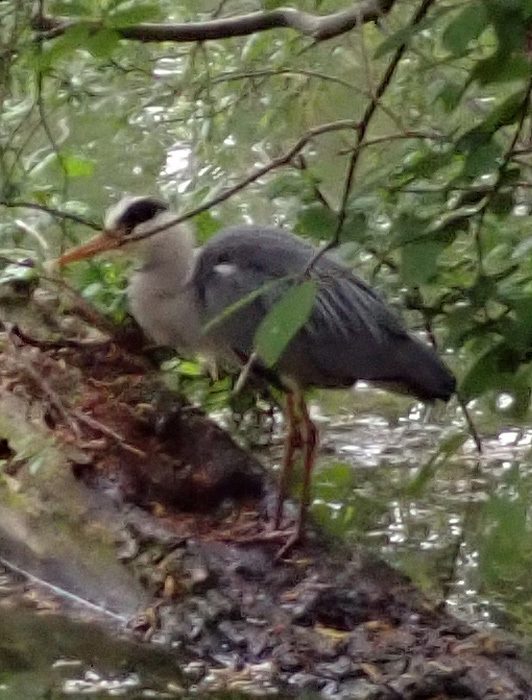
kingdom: Animalia
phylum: Chordata
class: Aves
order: Pelecaniformes
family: Ardeidae
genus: Ardea
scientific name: Ardea cinerea
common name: Grey heron
